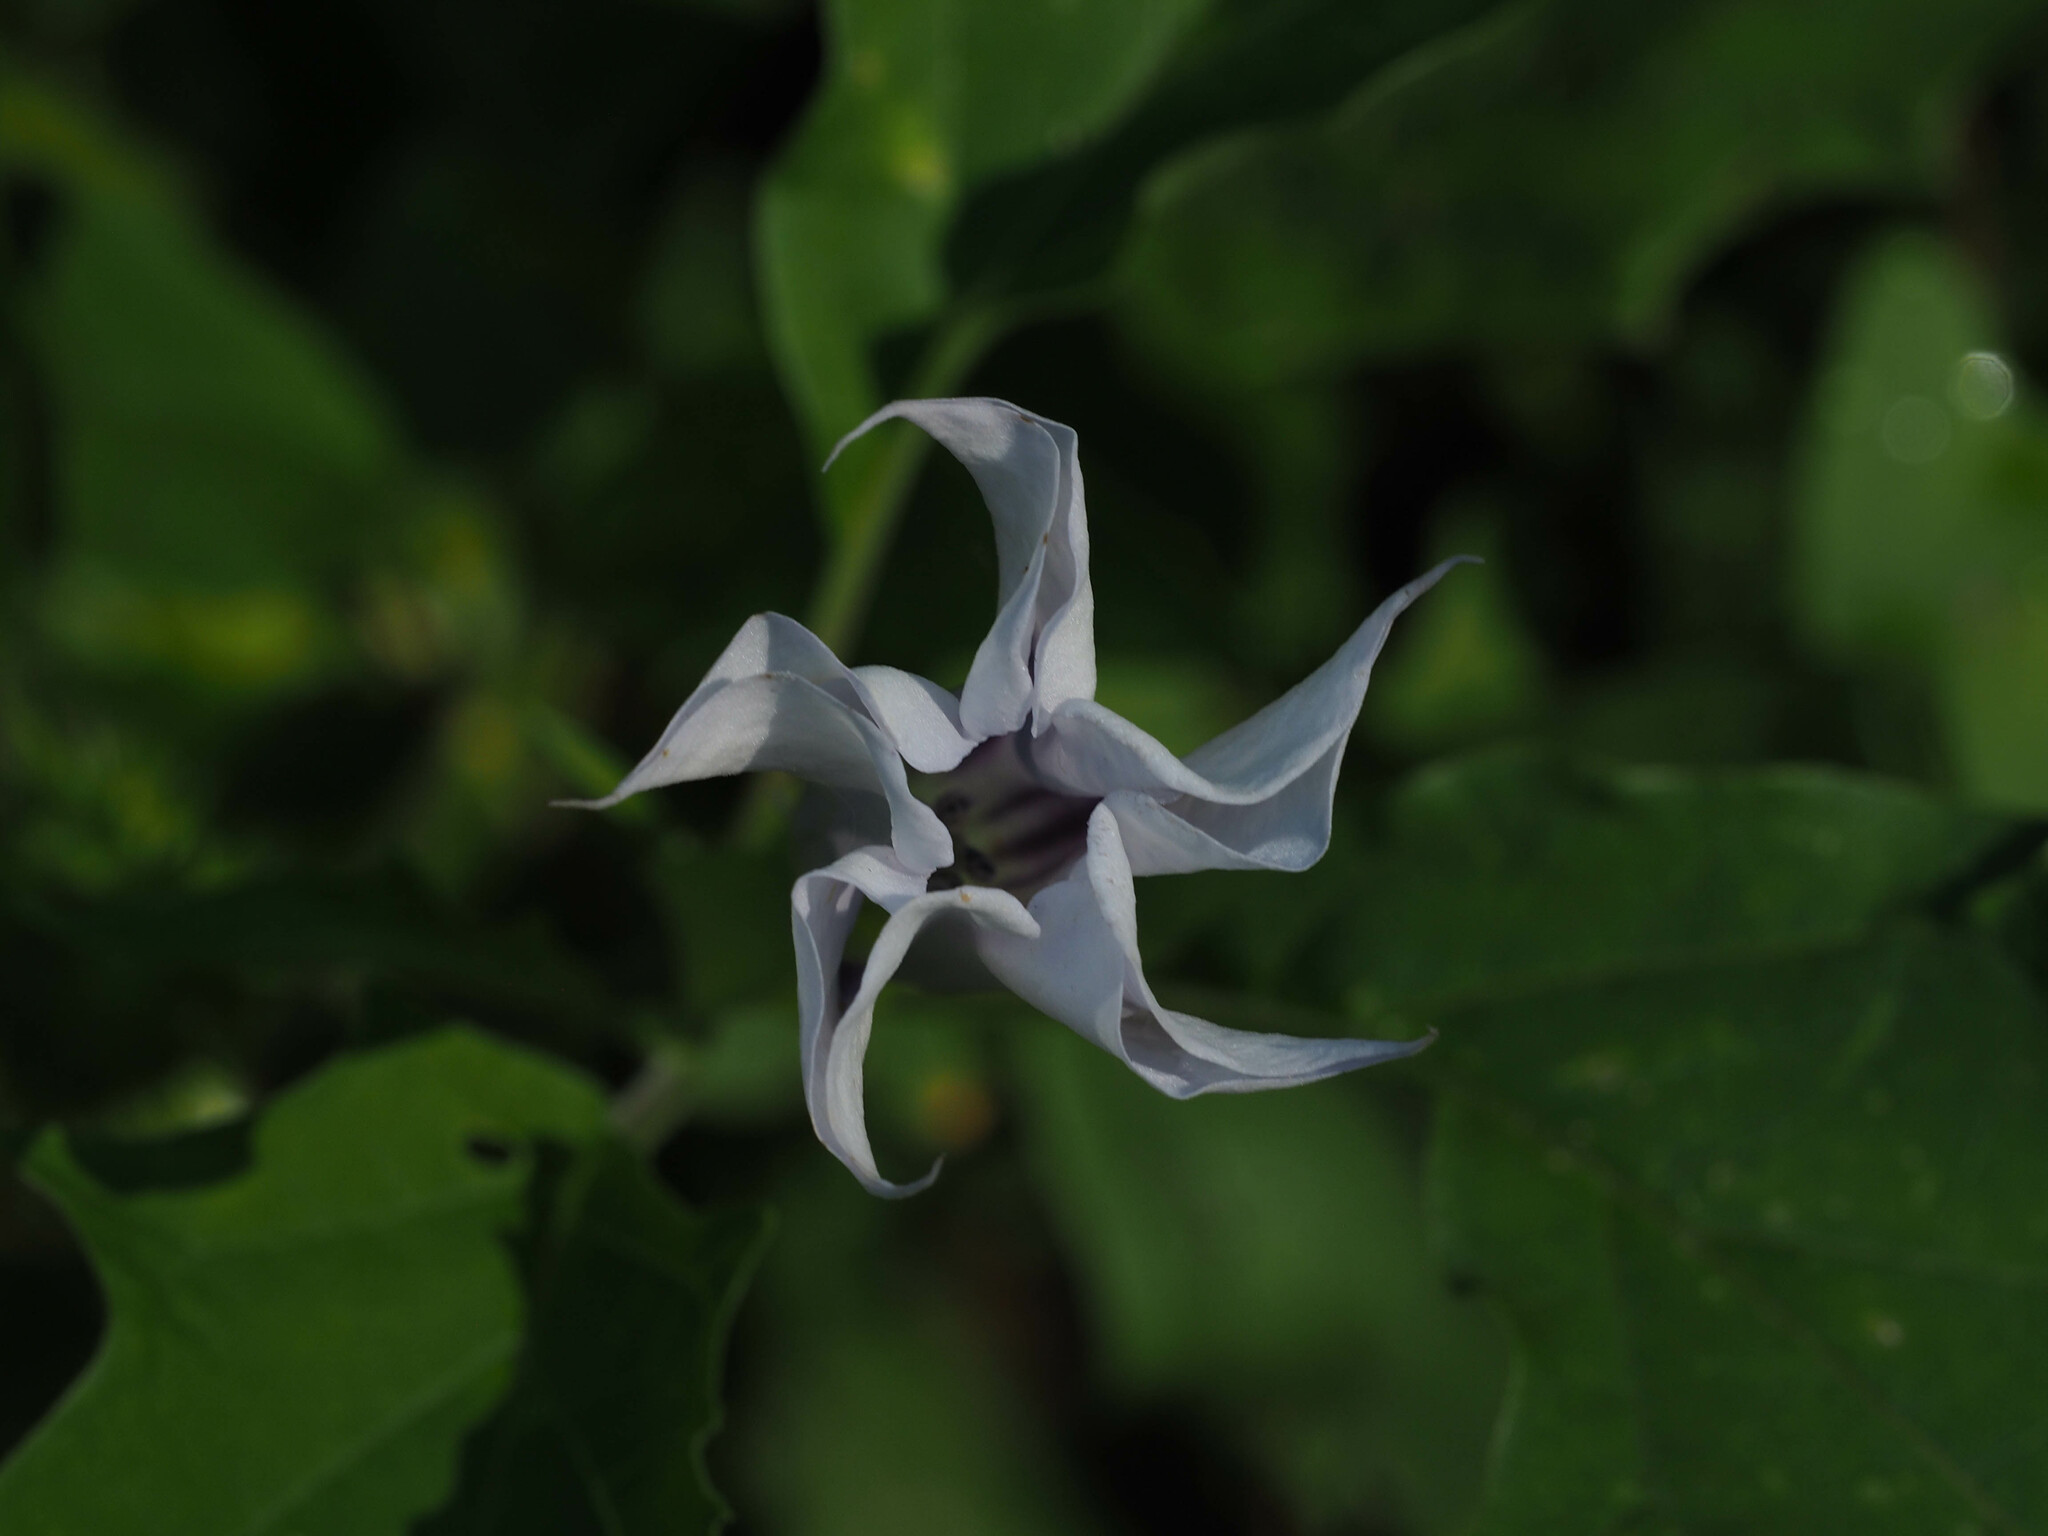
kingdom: Plantae
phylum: Tracheophyta
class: Magnoliopsida
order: Solanales
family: Solanaceae
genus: Datura
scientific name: Datura stramonium
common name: Thorn-apple
